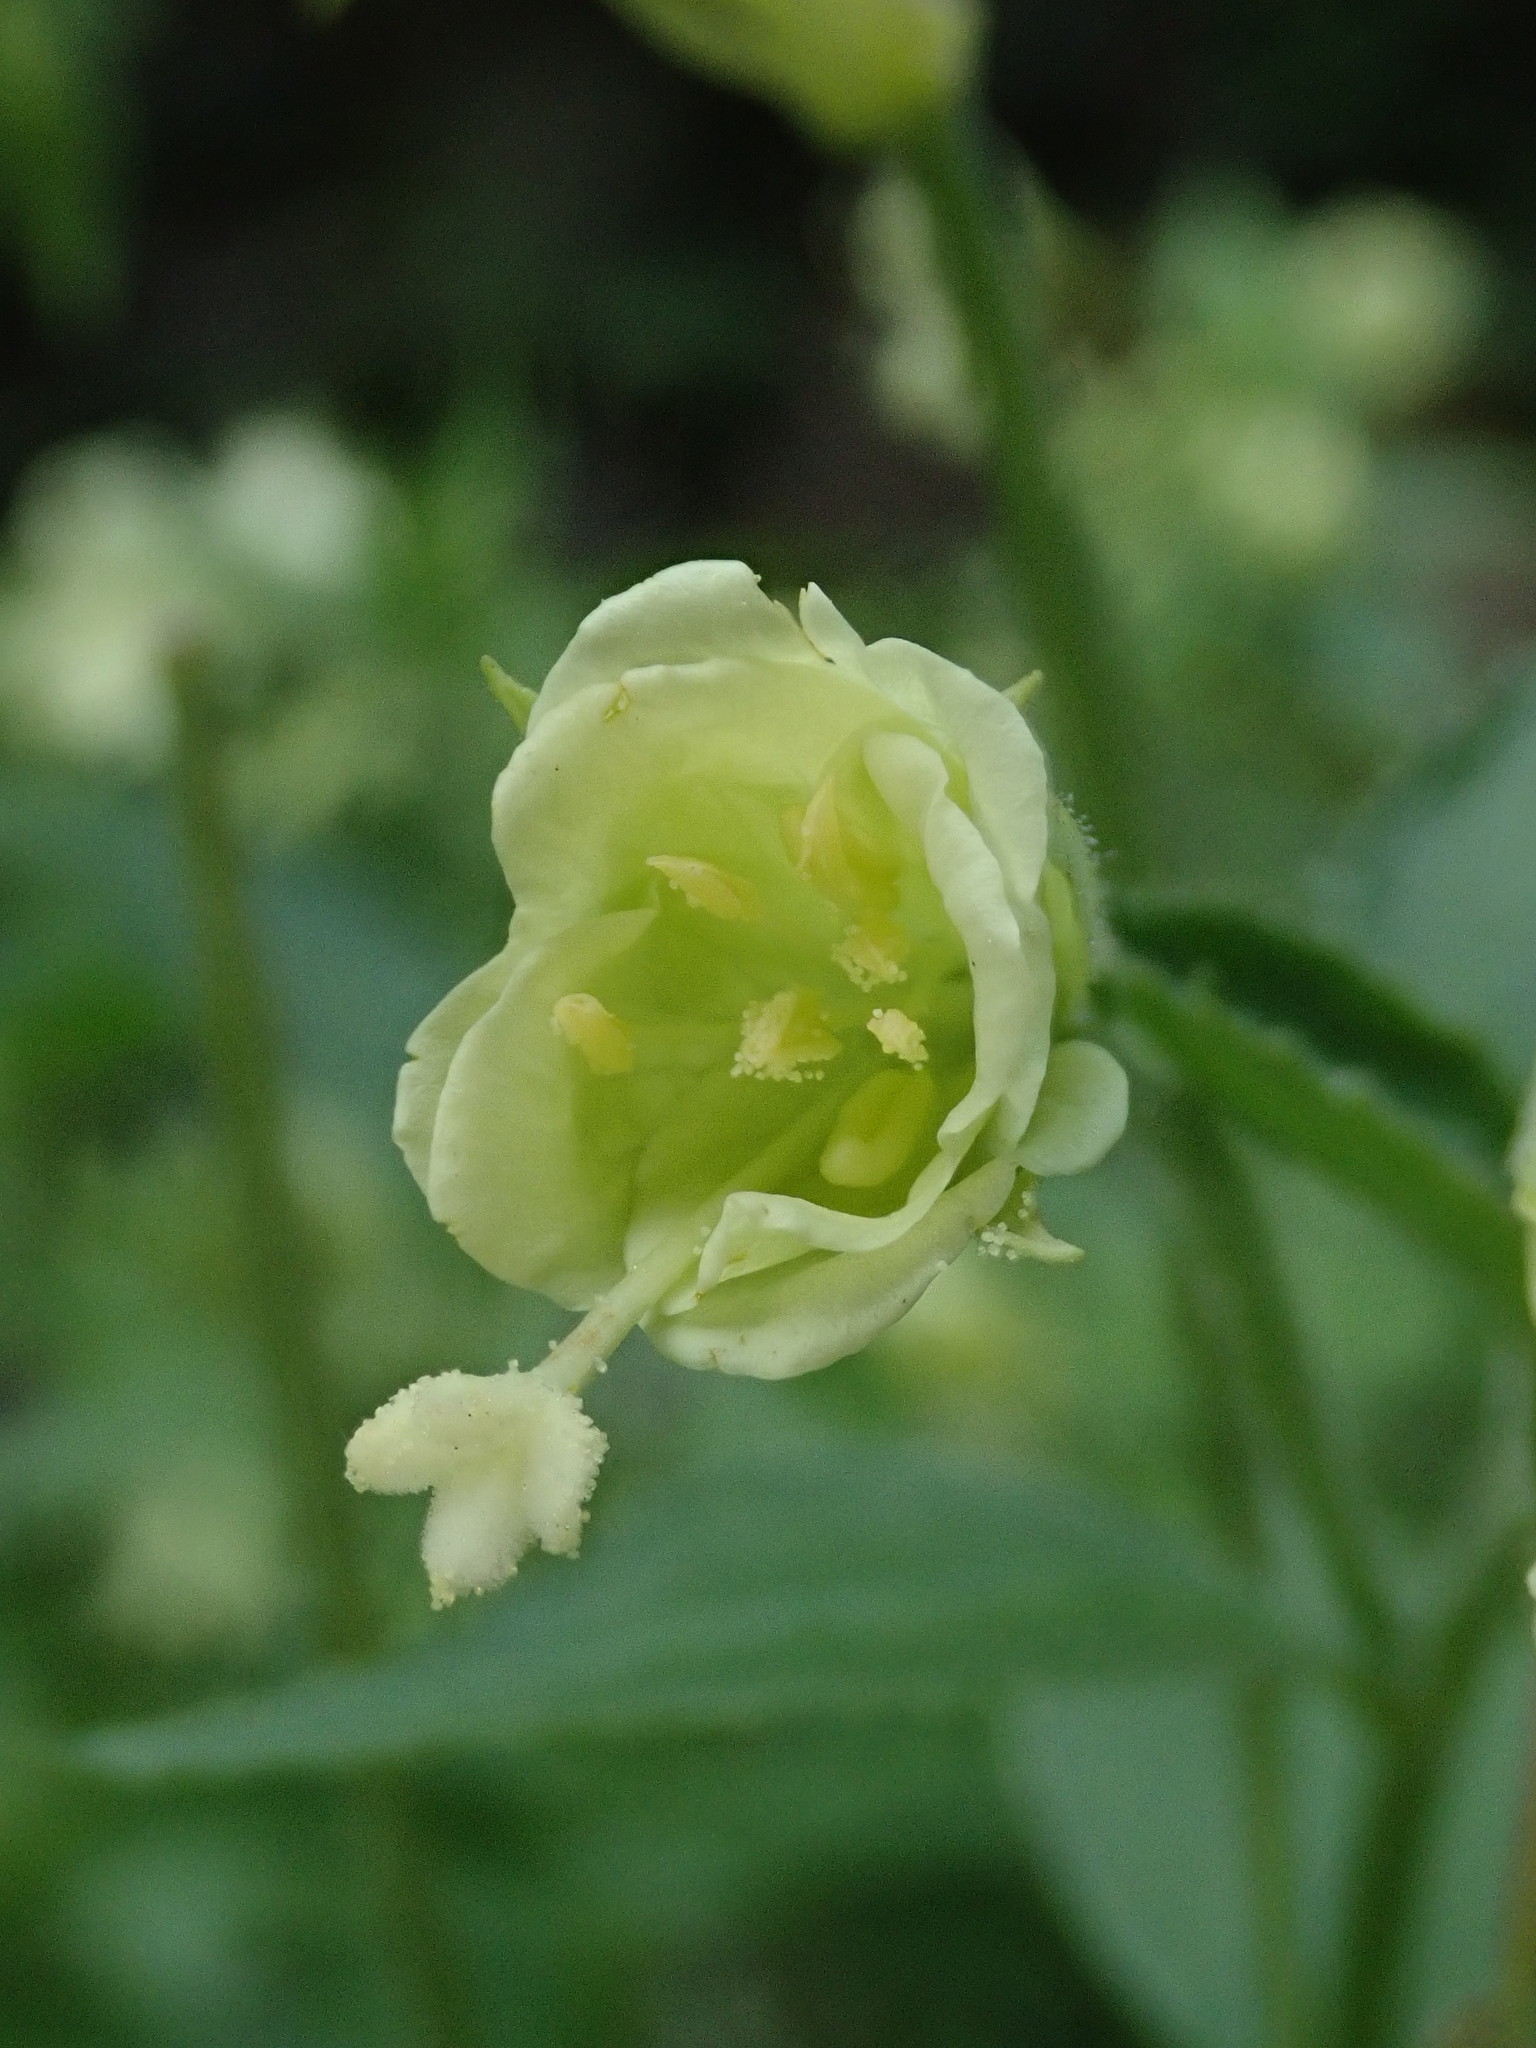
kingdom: Plantae
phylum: Tracheophyta
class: Magnoliopsida
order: Myrtales
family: Onagraceae
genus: Epilobium
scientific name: Epilobium luteum
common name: Yellow willowherb
